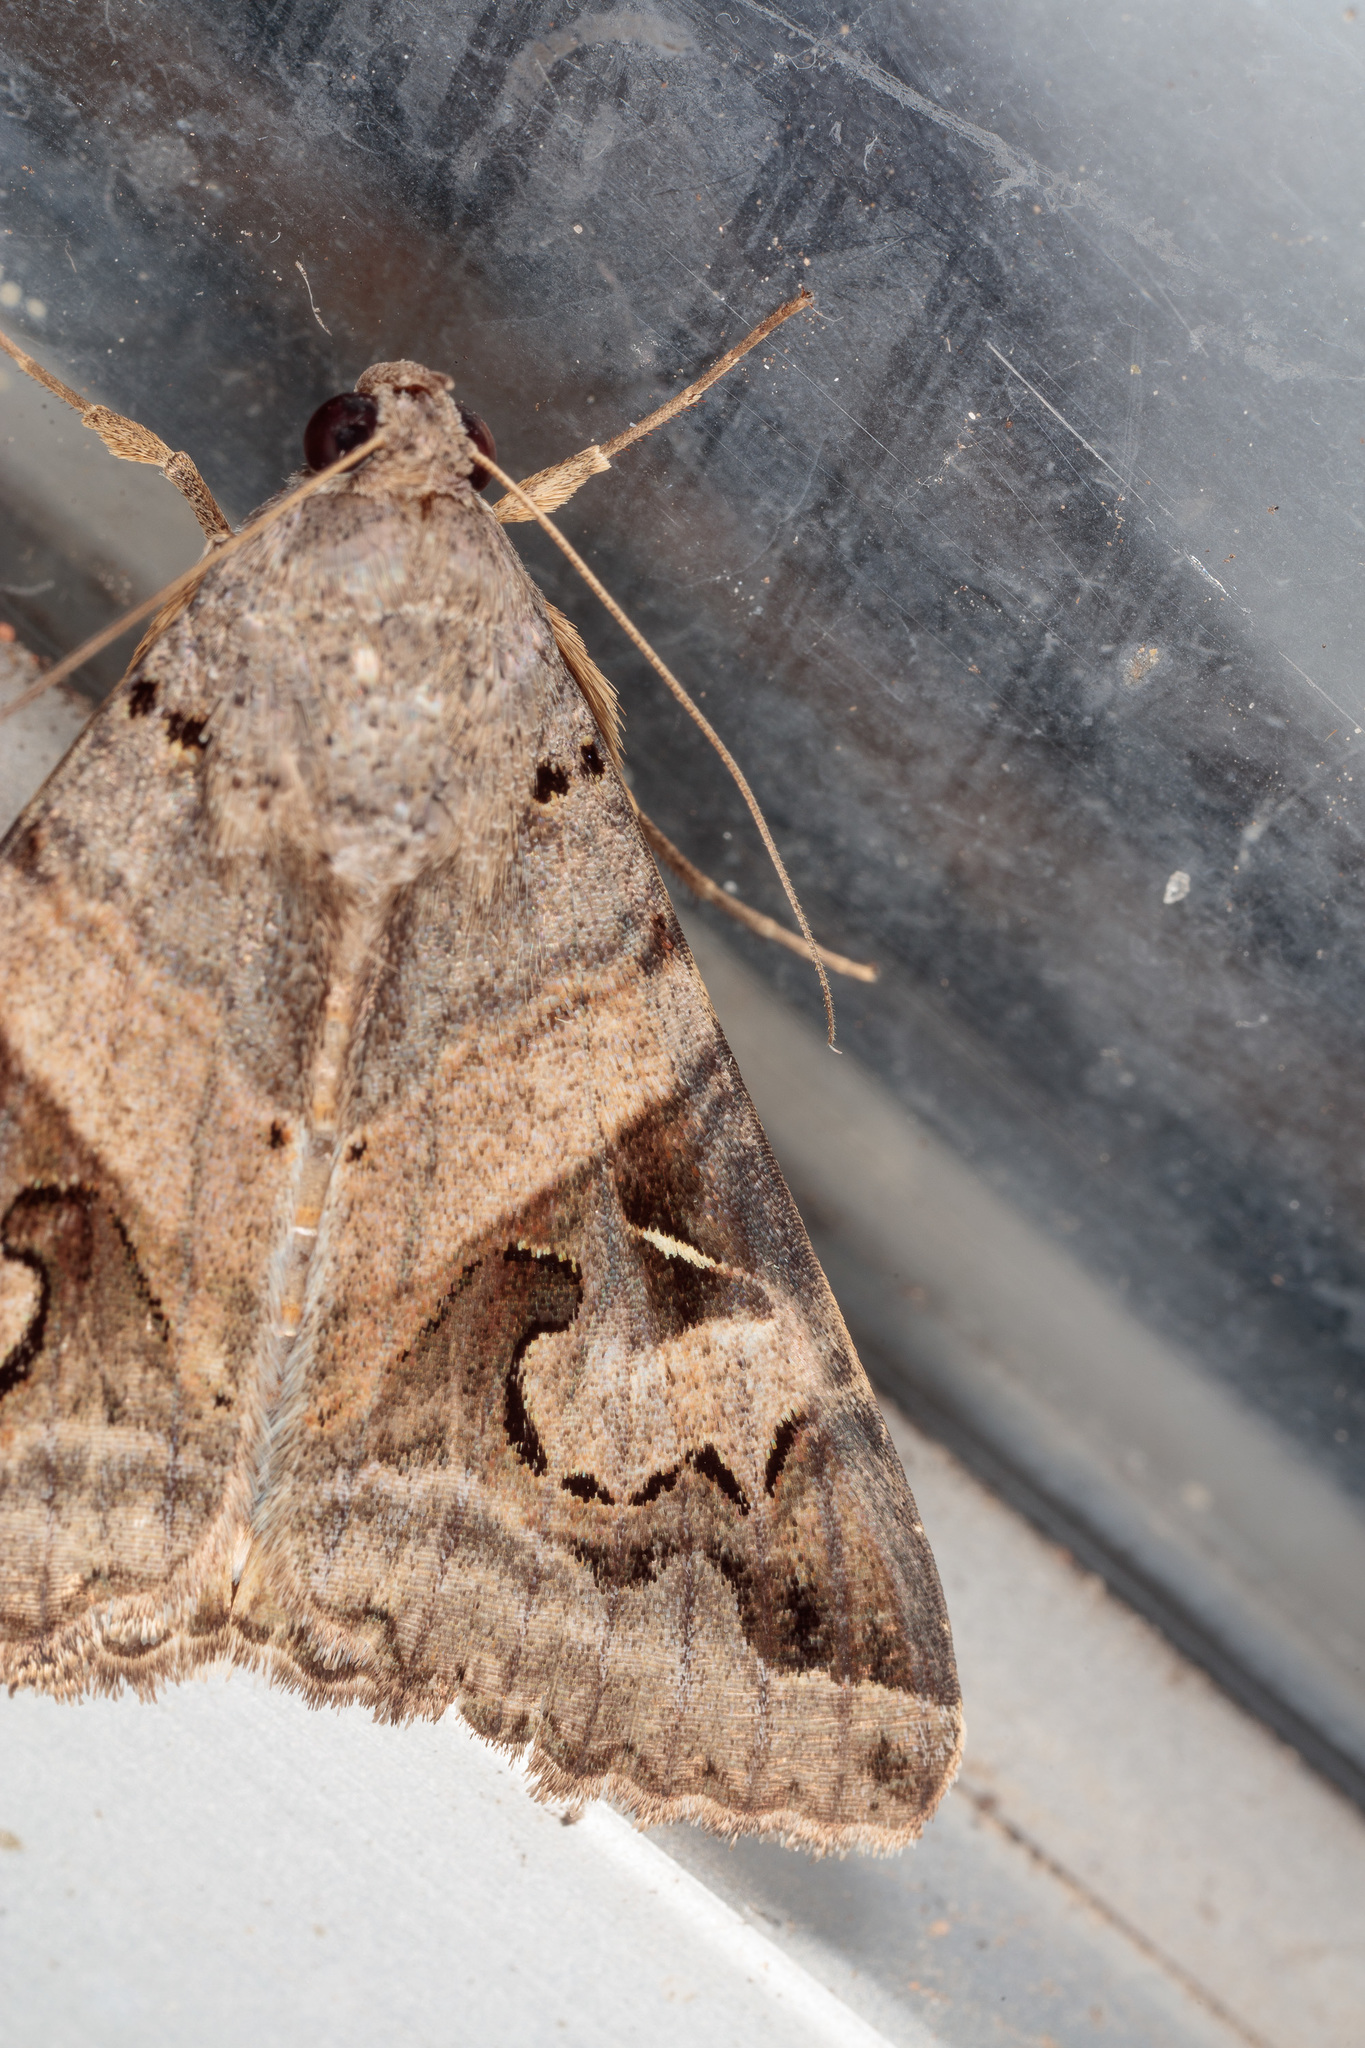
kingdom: Animalia
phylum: Arthropoda
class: Insecta
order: Lepidoptera
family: Erebidae
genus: Melipotis
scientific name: Melipotis indomita
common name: Moth
